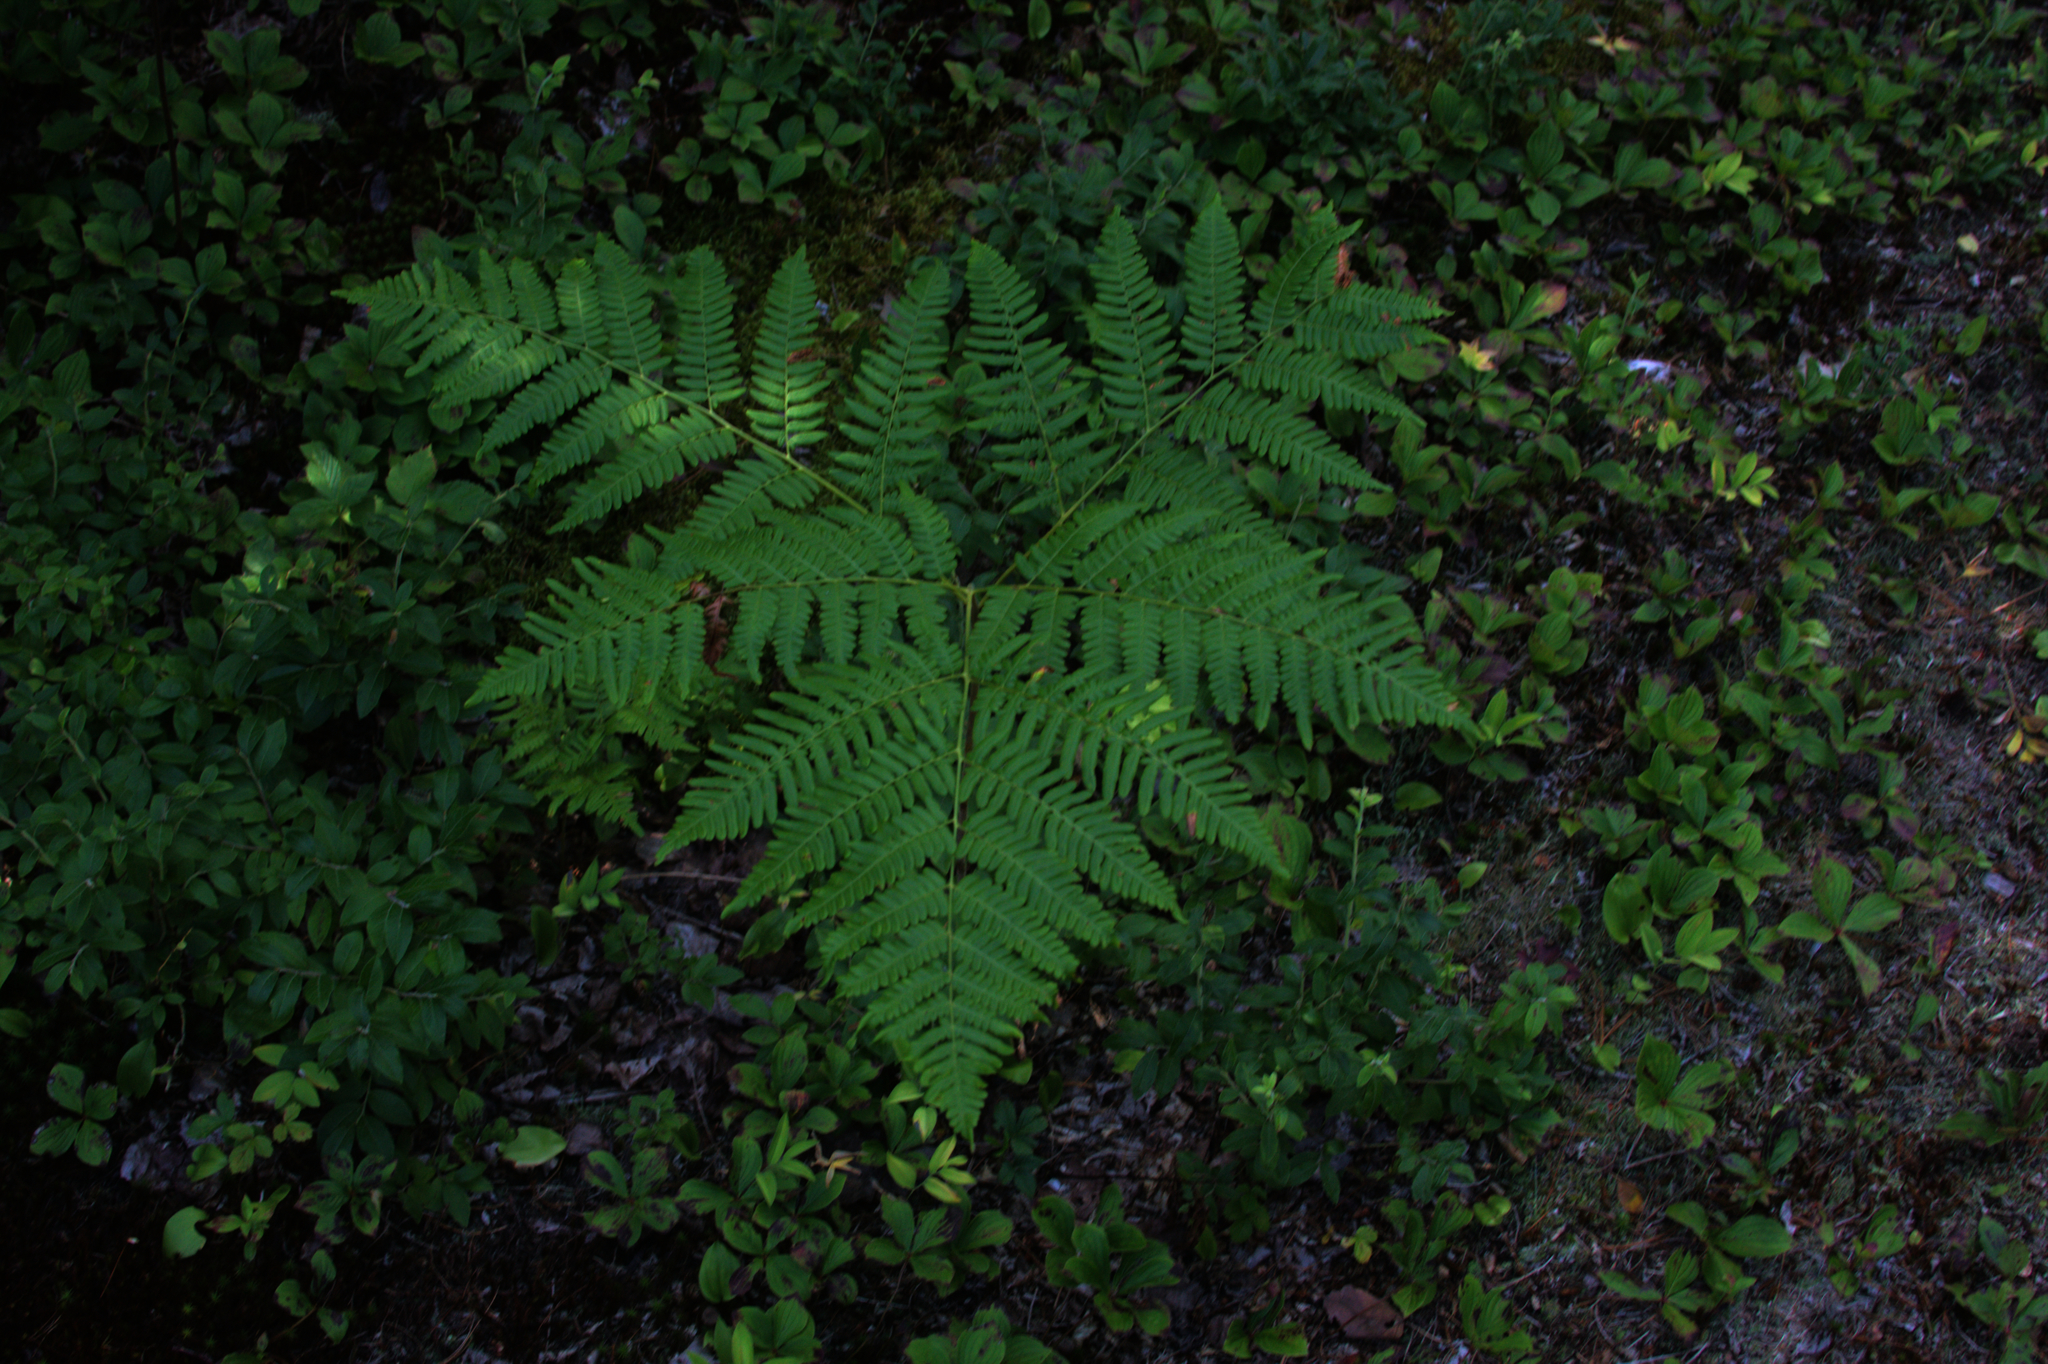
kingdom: Plantae
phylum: Tracheophyta
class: Magnoliopsida
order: Cornales
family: Cornaceae
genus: Cornus
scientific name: Cornus canadensis
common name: Creeping dogwood
